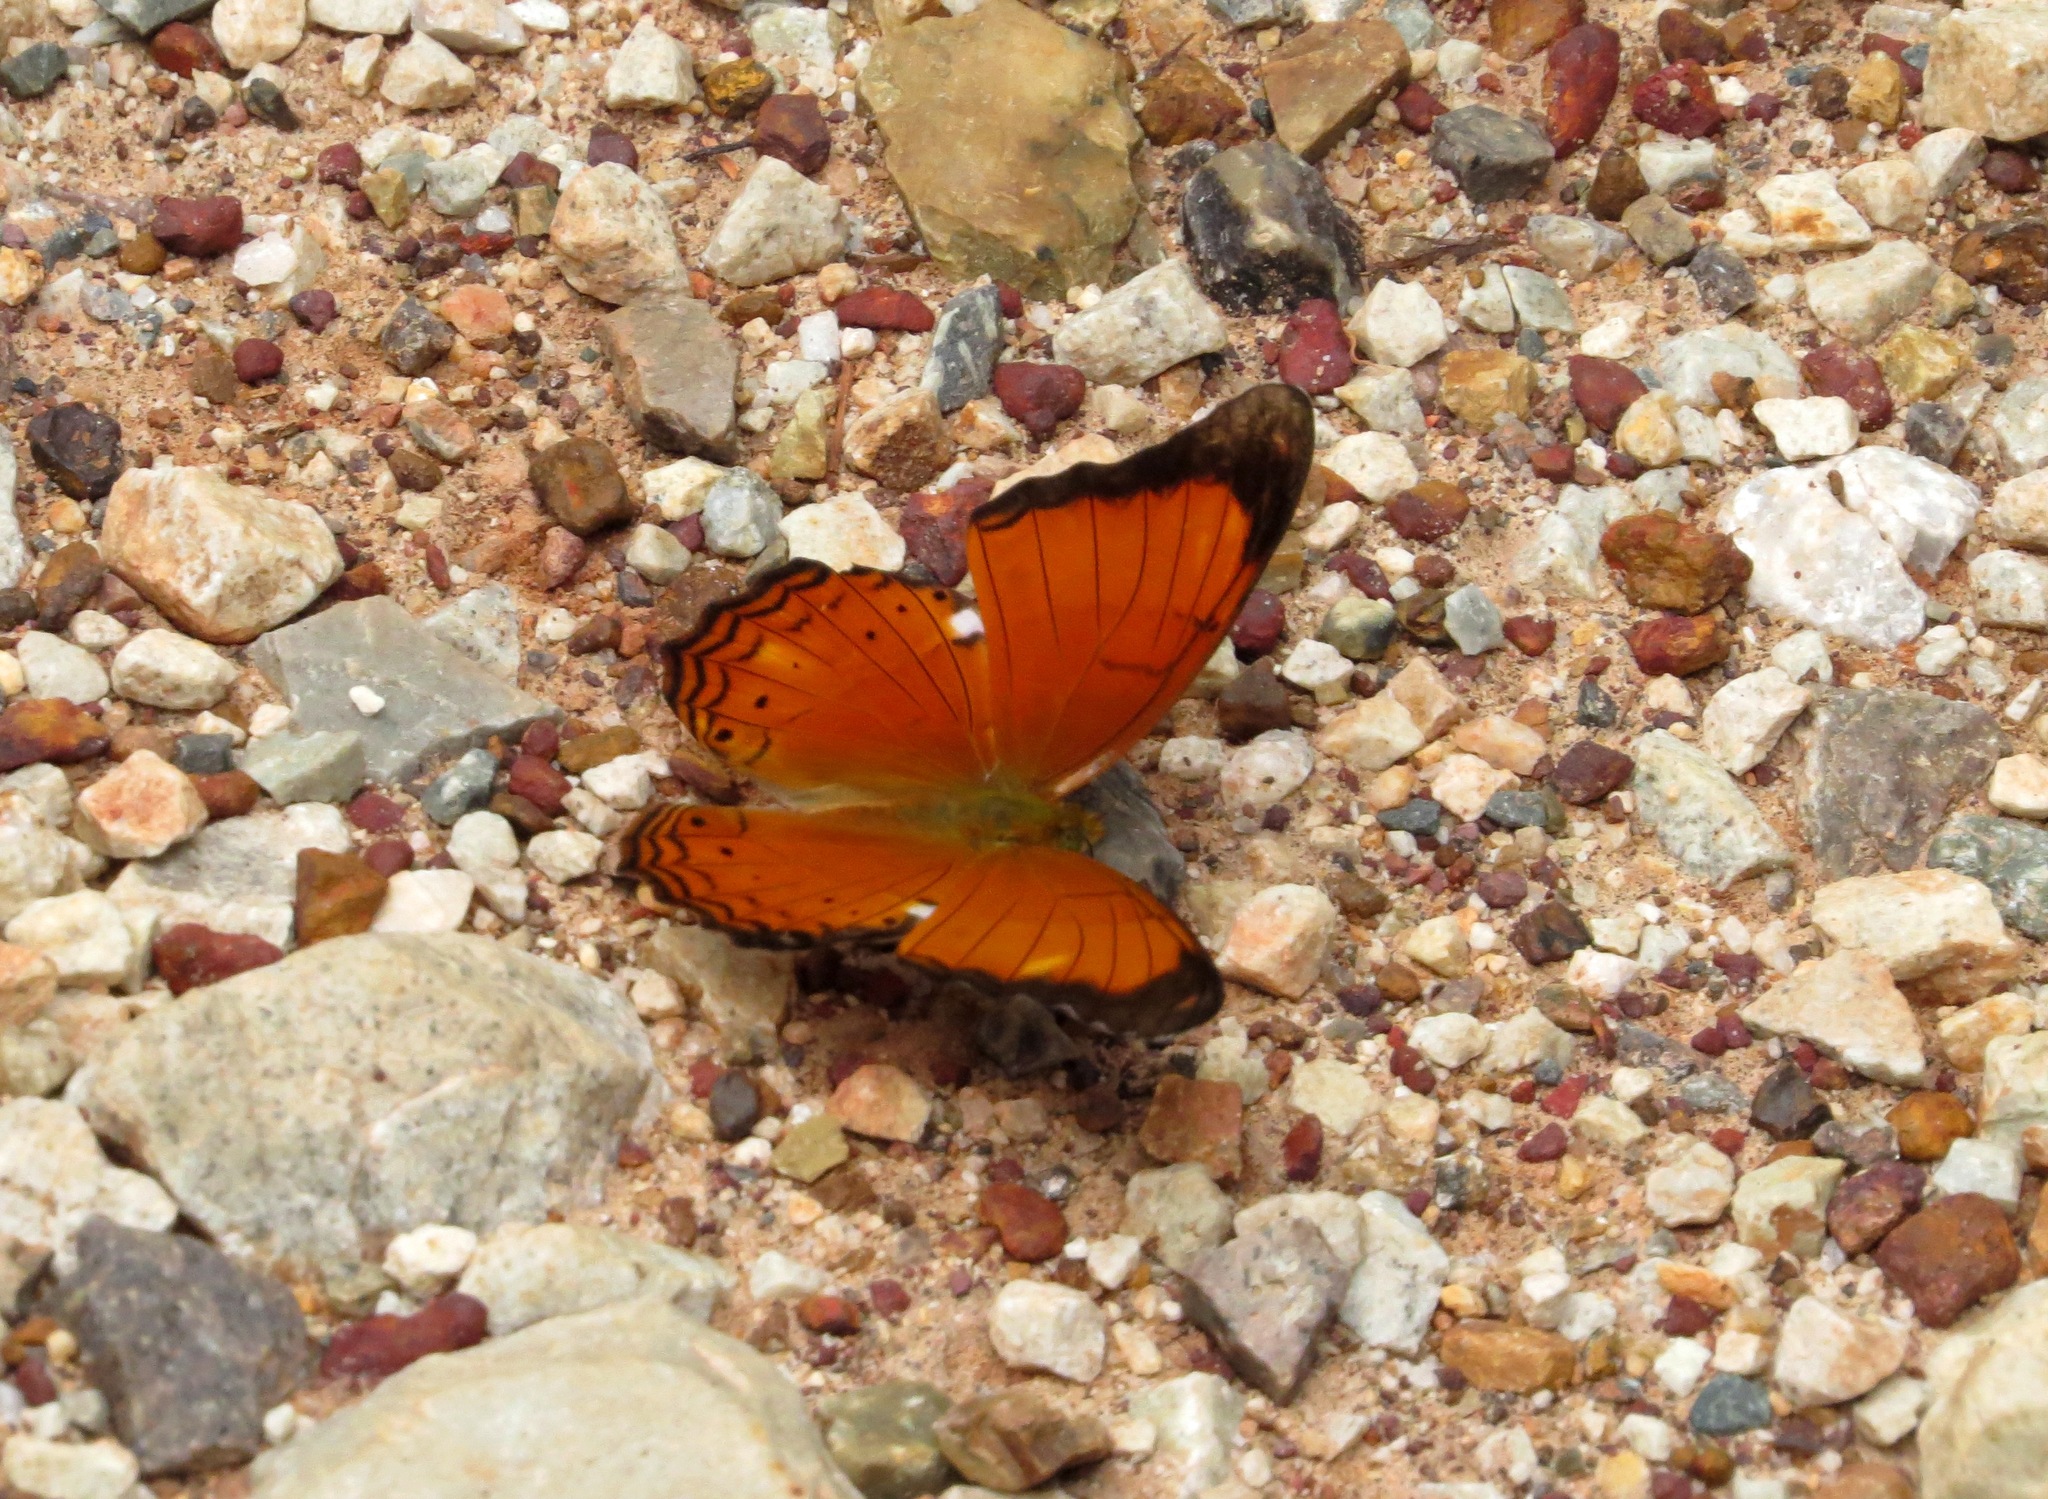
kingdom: Animalia
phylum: Arthropoda
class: Insecta
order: Lepidoptera
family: Nymphalidae
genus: Cirrochroa
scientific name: Cirrochroa emalea
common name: Malay yeoman
